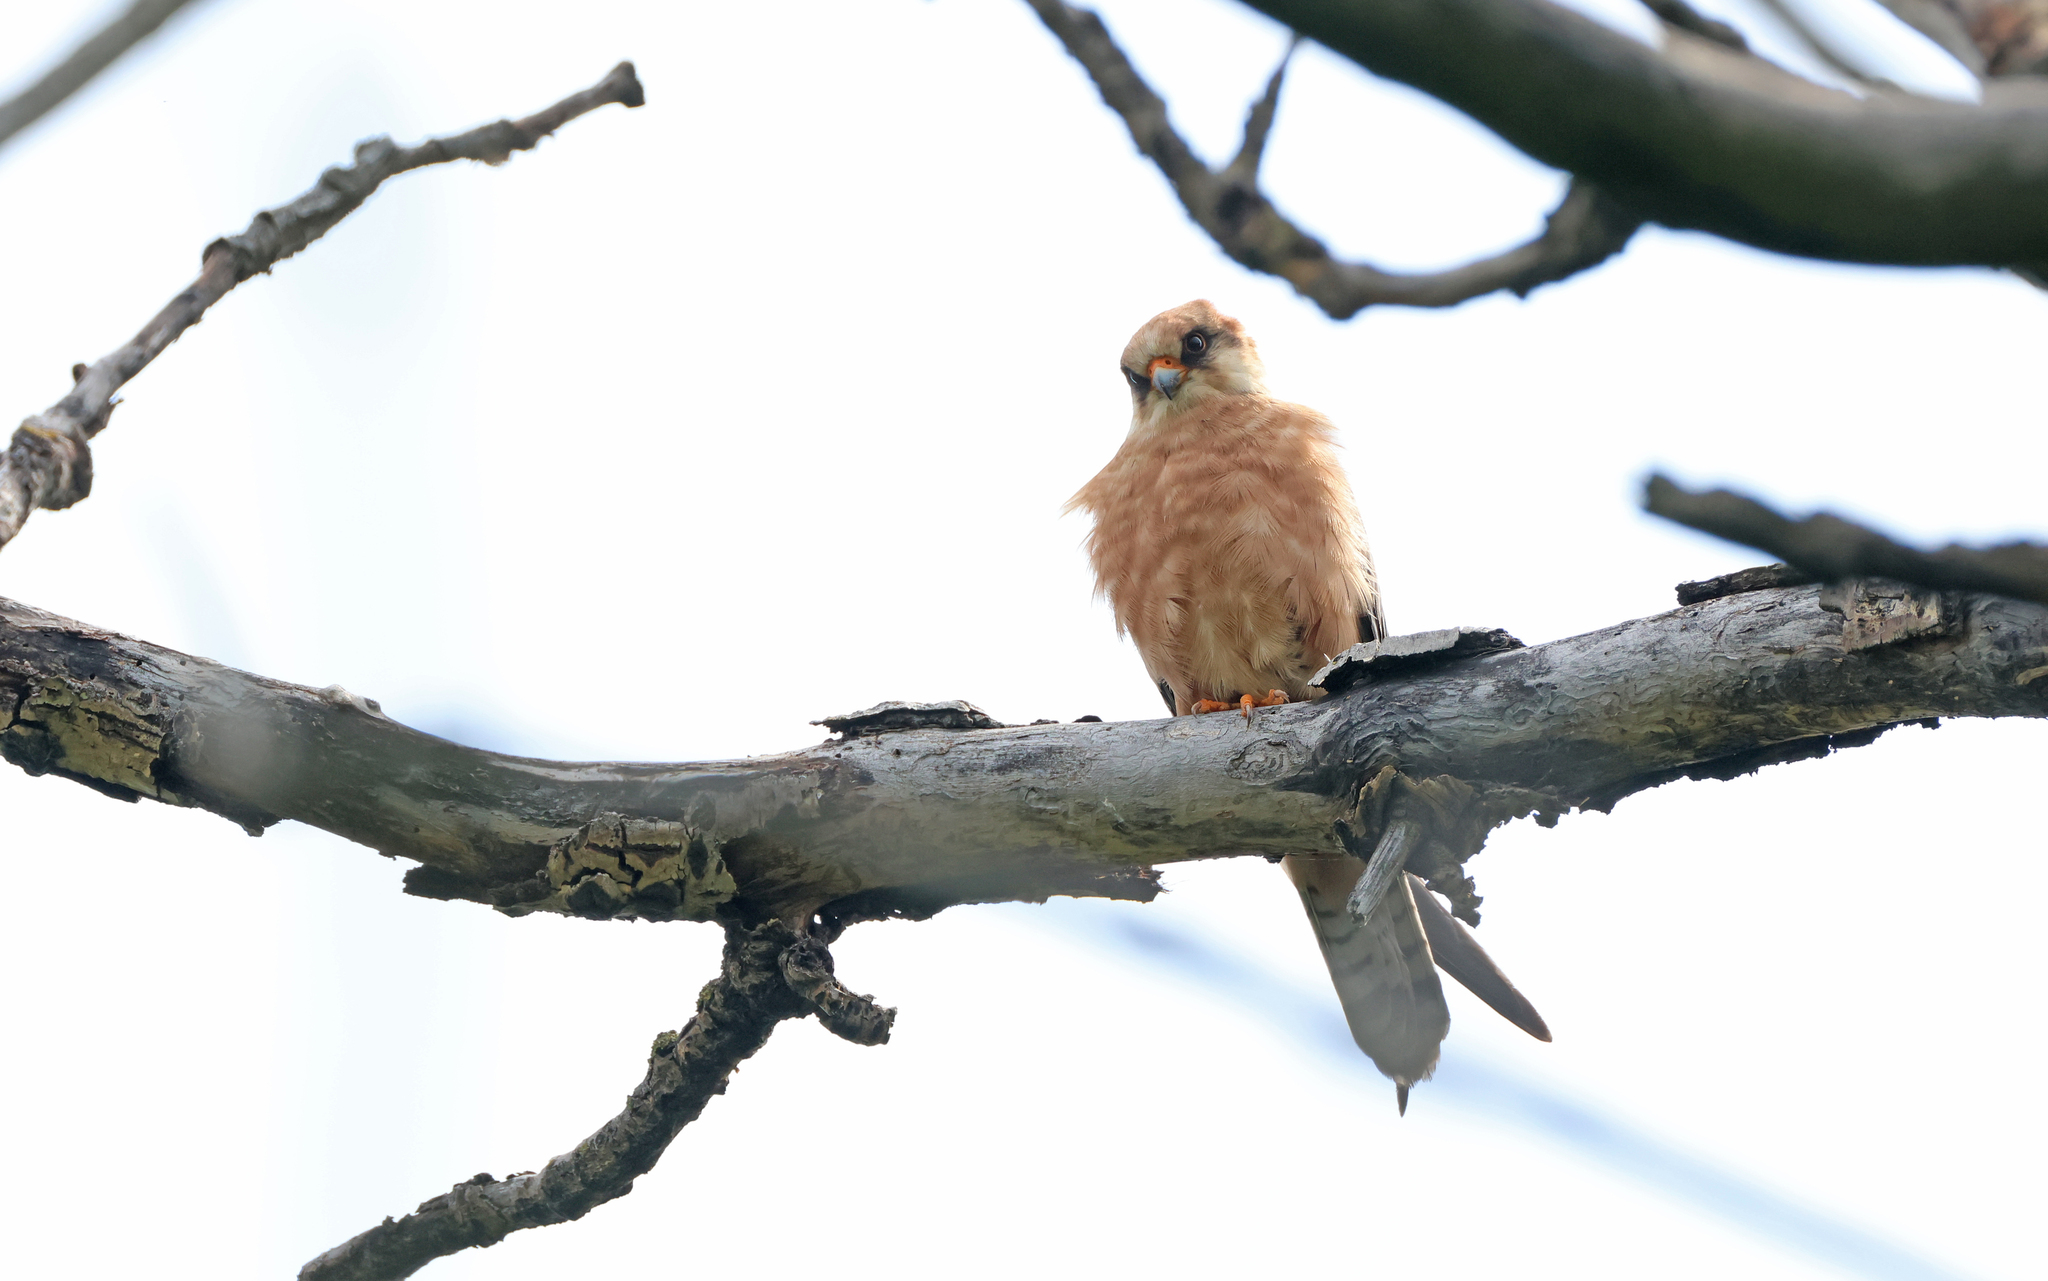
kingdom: Animalia
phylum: Chordata
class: Aves
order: Falconiformes
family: Falconidae
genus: Falco
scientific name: Falco vespertinus
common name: Red-footed falcon
